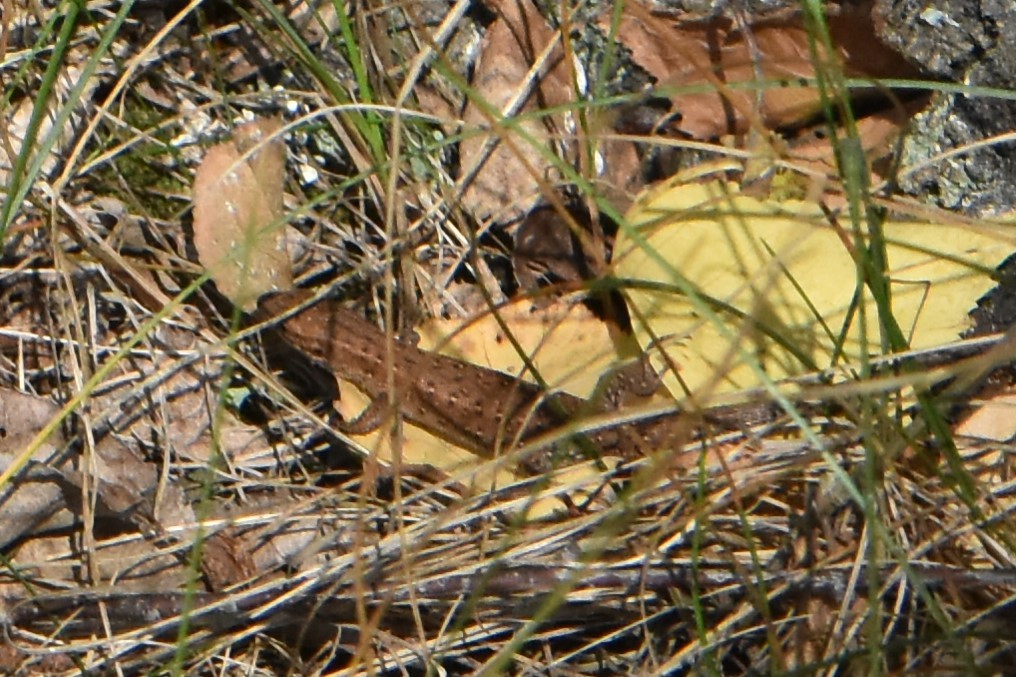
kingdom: Animalia
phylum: Chordata
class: Squamata
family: Lacertidae
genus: Zootoca
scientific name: Zootoca vivipara
